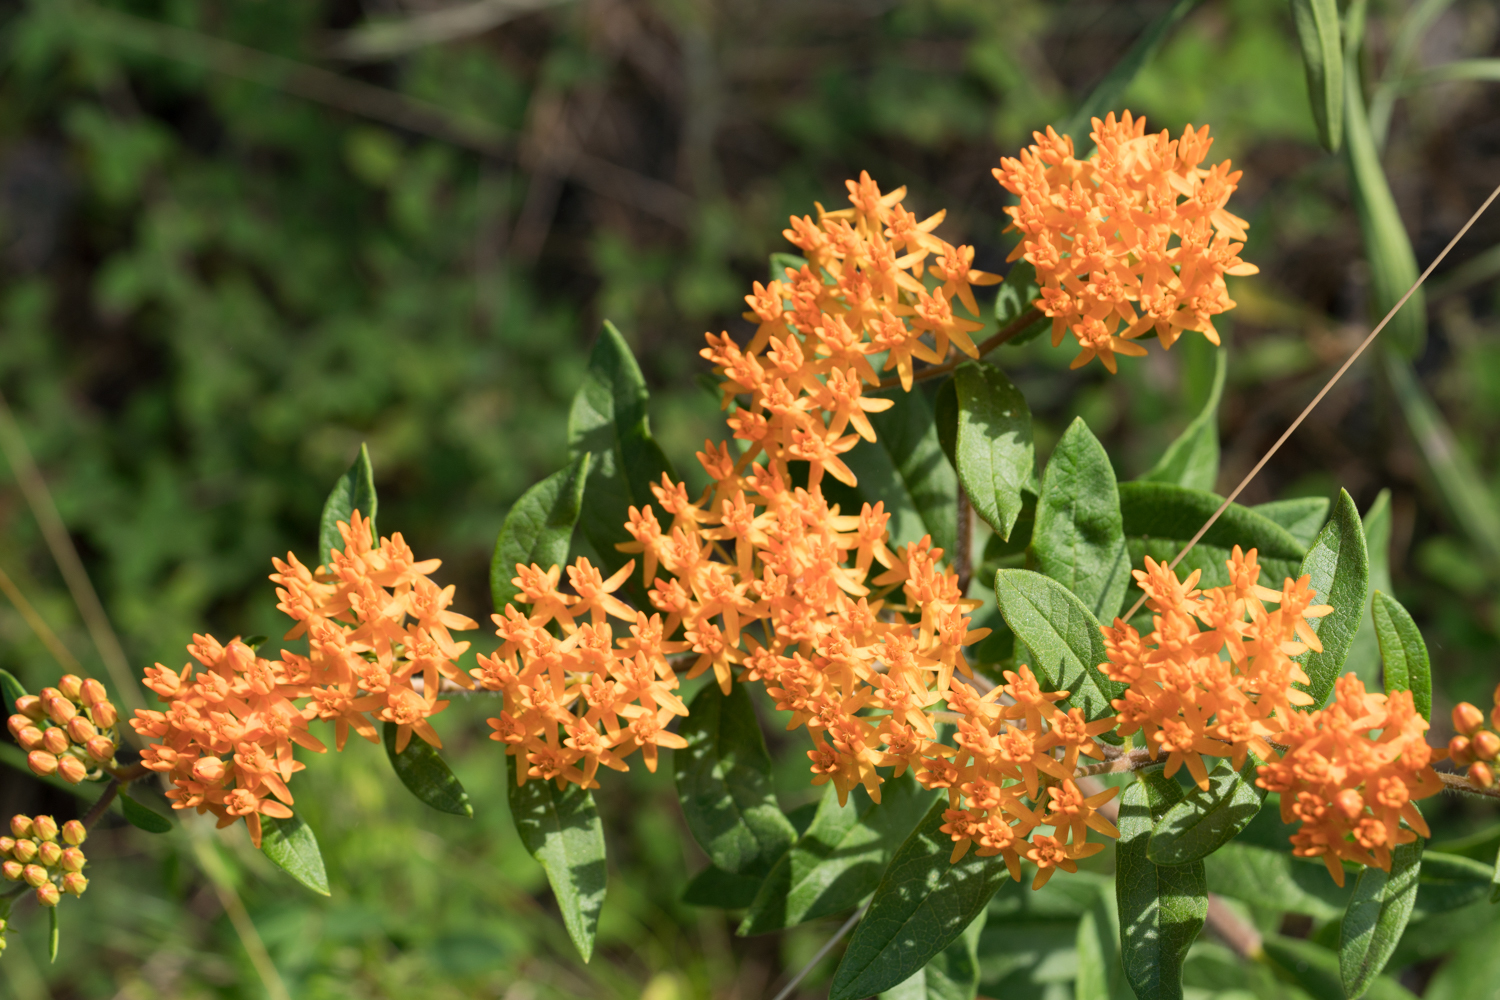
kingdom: Plantae
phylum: Tracheophyta
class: Magnoliopsida
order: Gentianales
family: Apocynaceae
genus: Asclepias
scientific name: Asclepias tuberosa
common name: Butterfly milkweed
